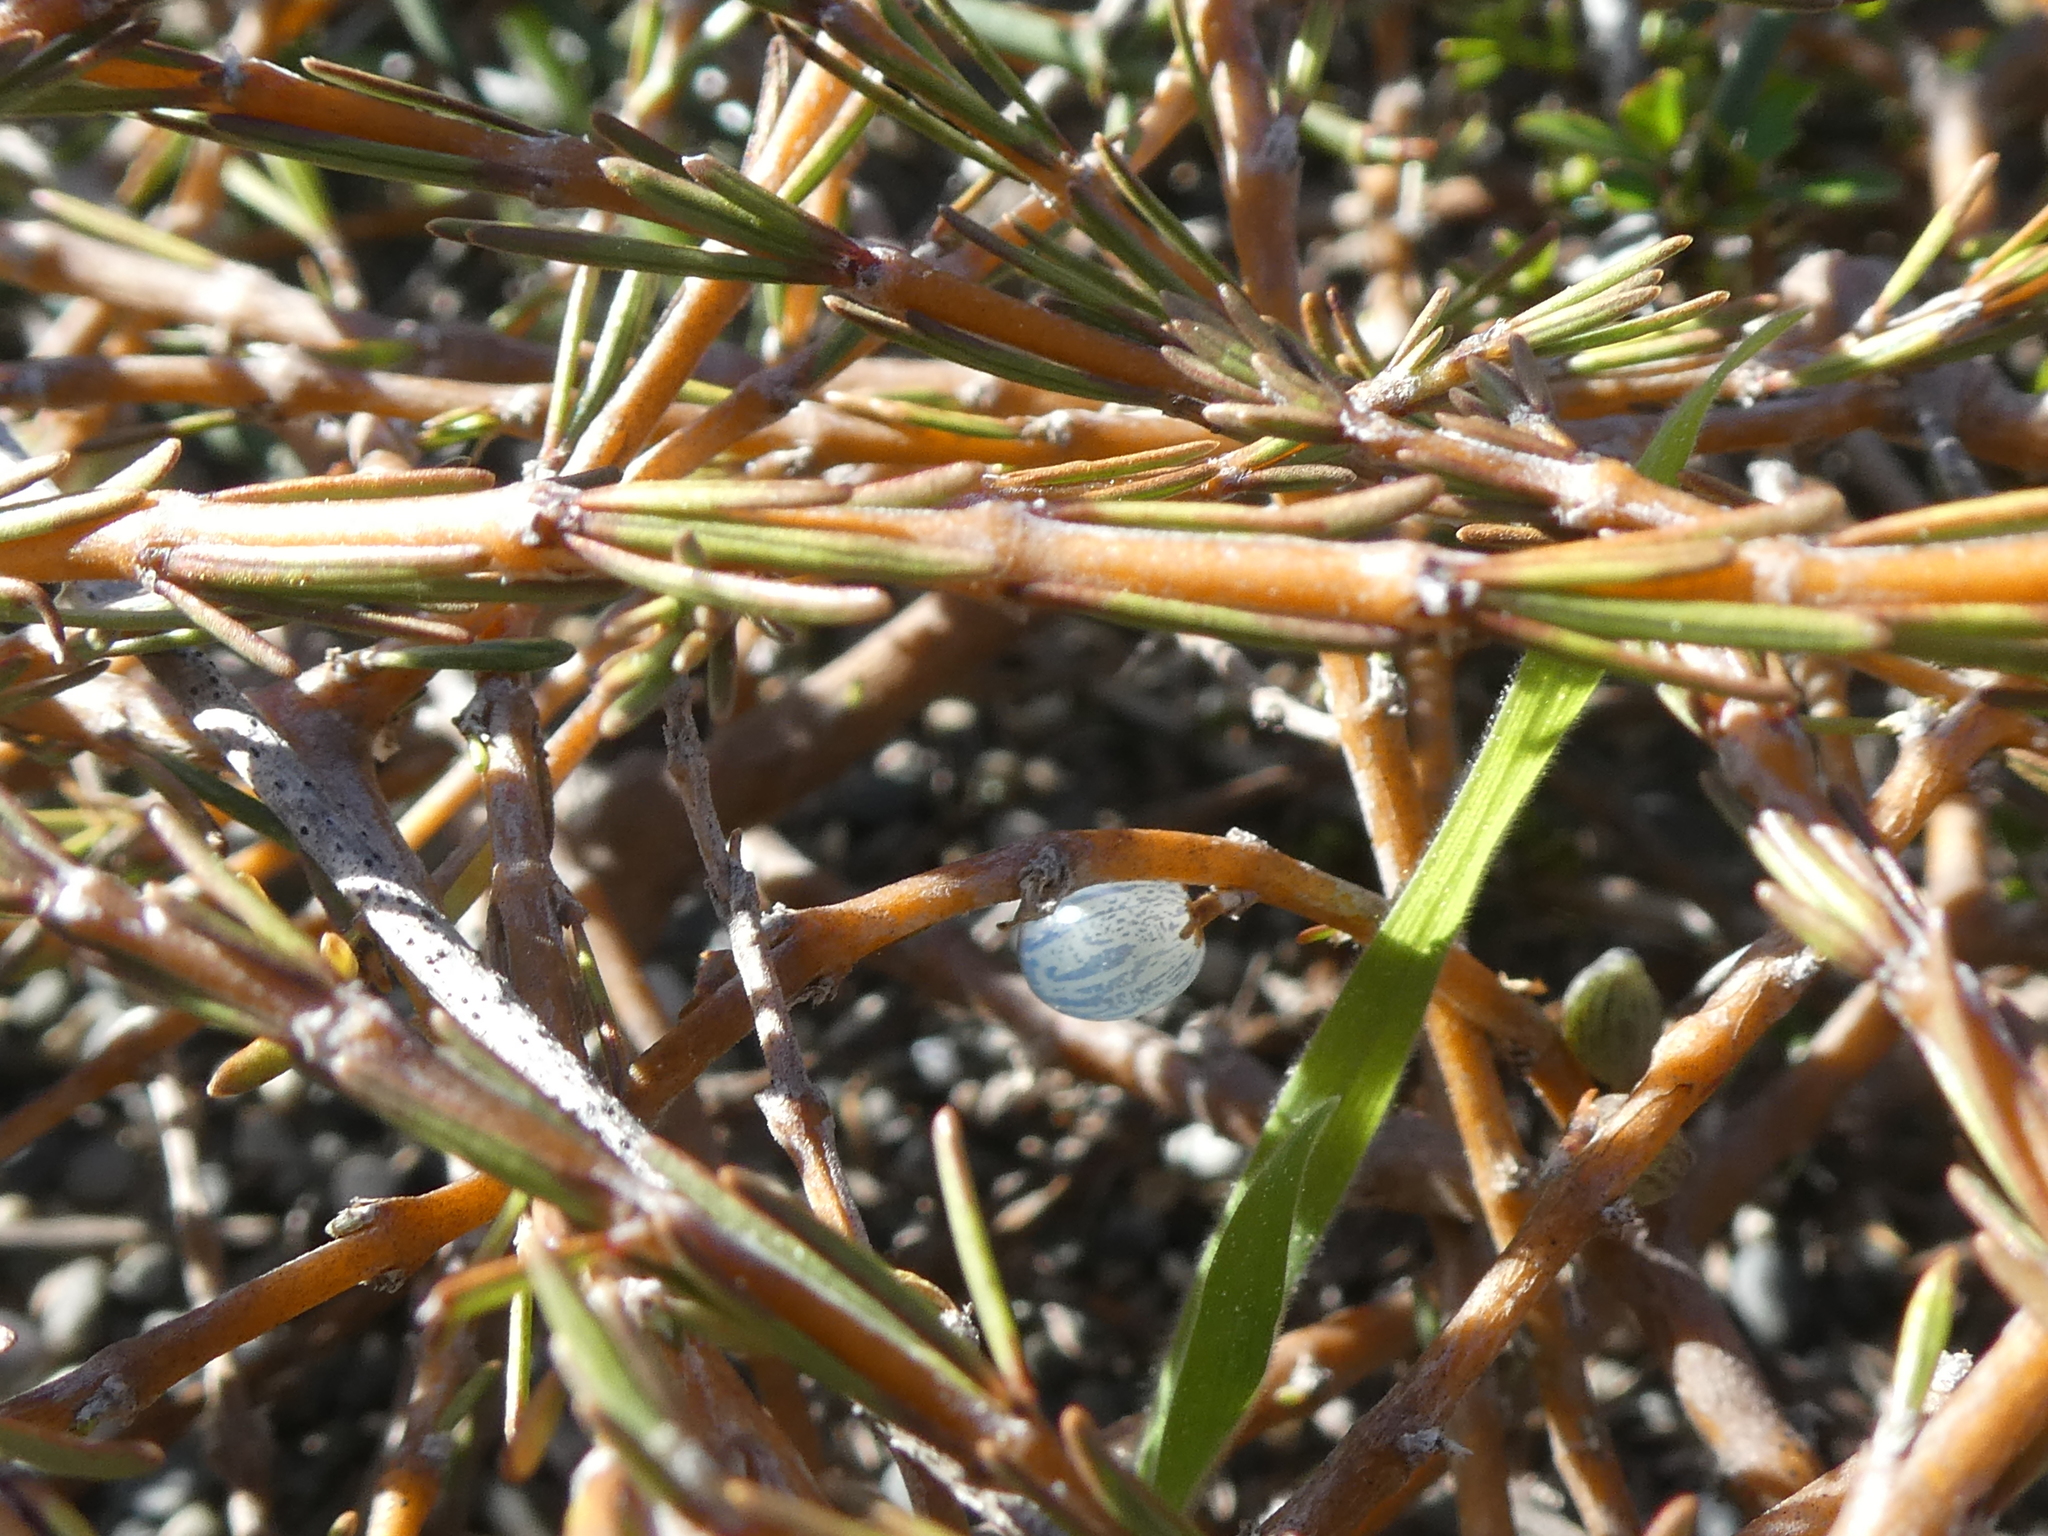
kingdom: Plantae
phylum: Tracheophyta
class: Magnoliopsida
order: Gentianales
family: Rubiaceae
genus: Coprosma
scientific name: Coprosma acerosa
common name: Sand coprosma
